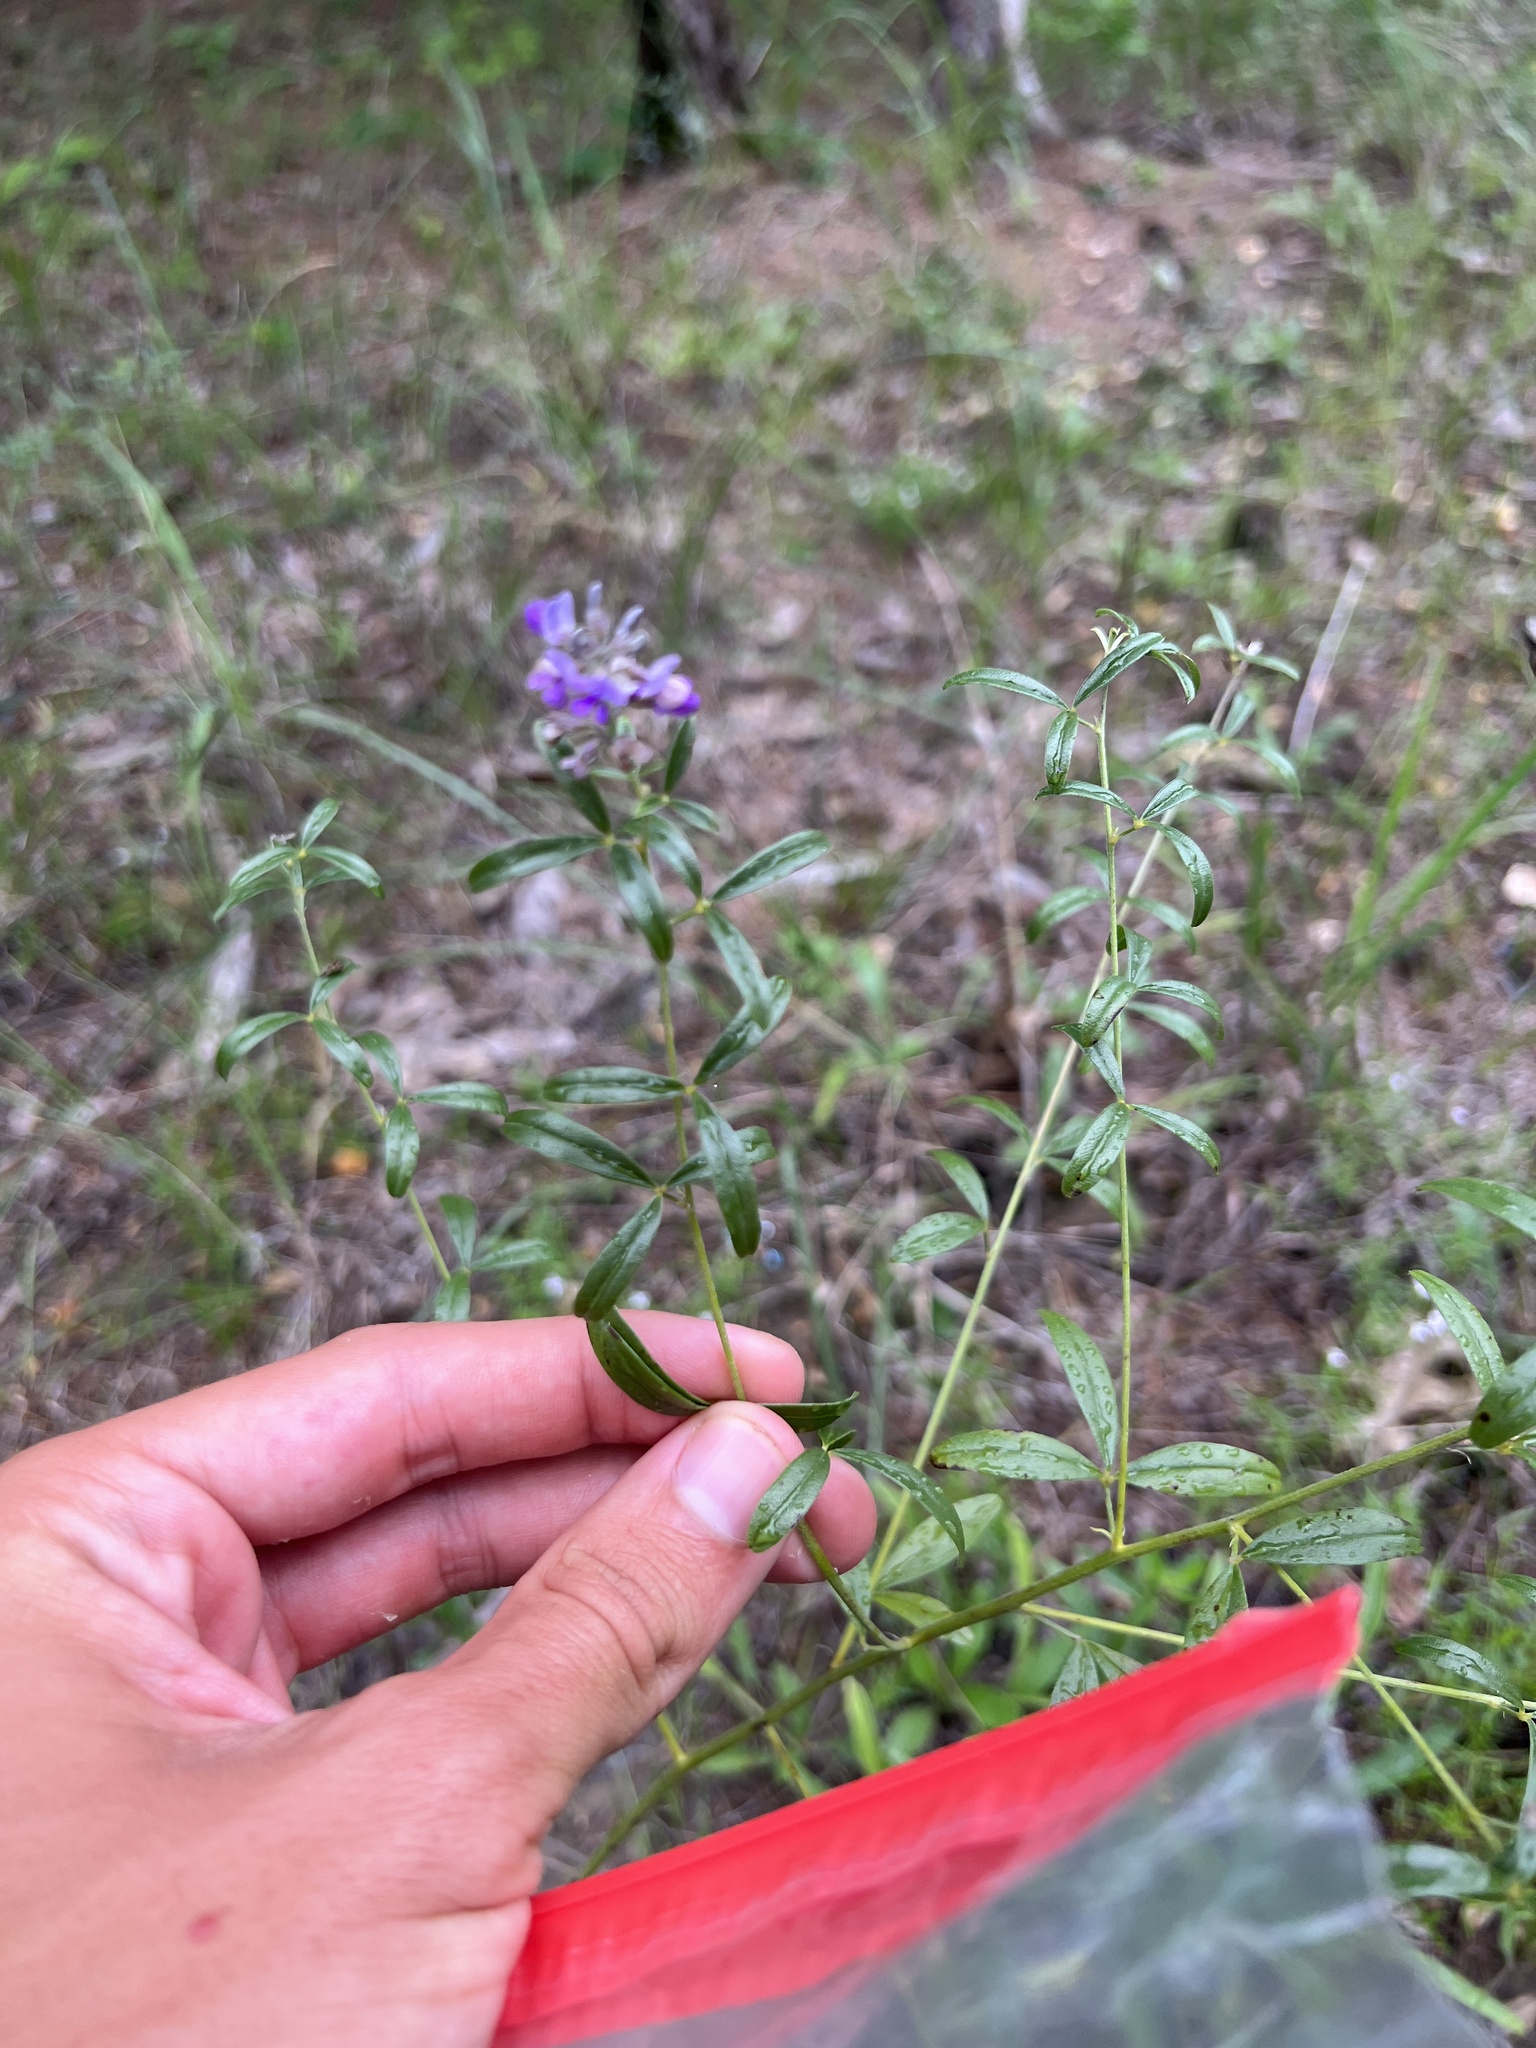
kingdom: Plantae
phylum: Tracheophyta
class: Magnoliopsida
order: Fabales
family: Fabaceae
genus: Pediomelum
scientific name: Pediomelum tenuiflorum
